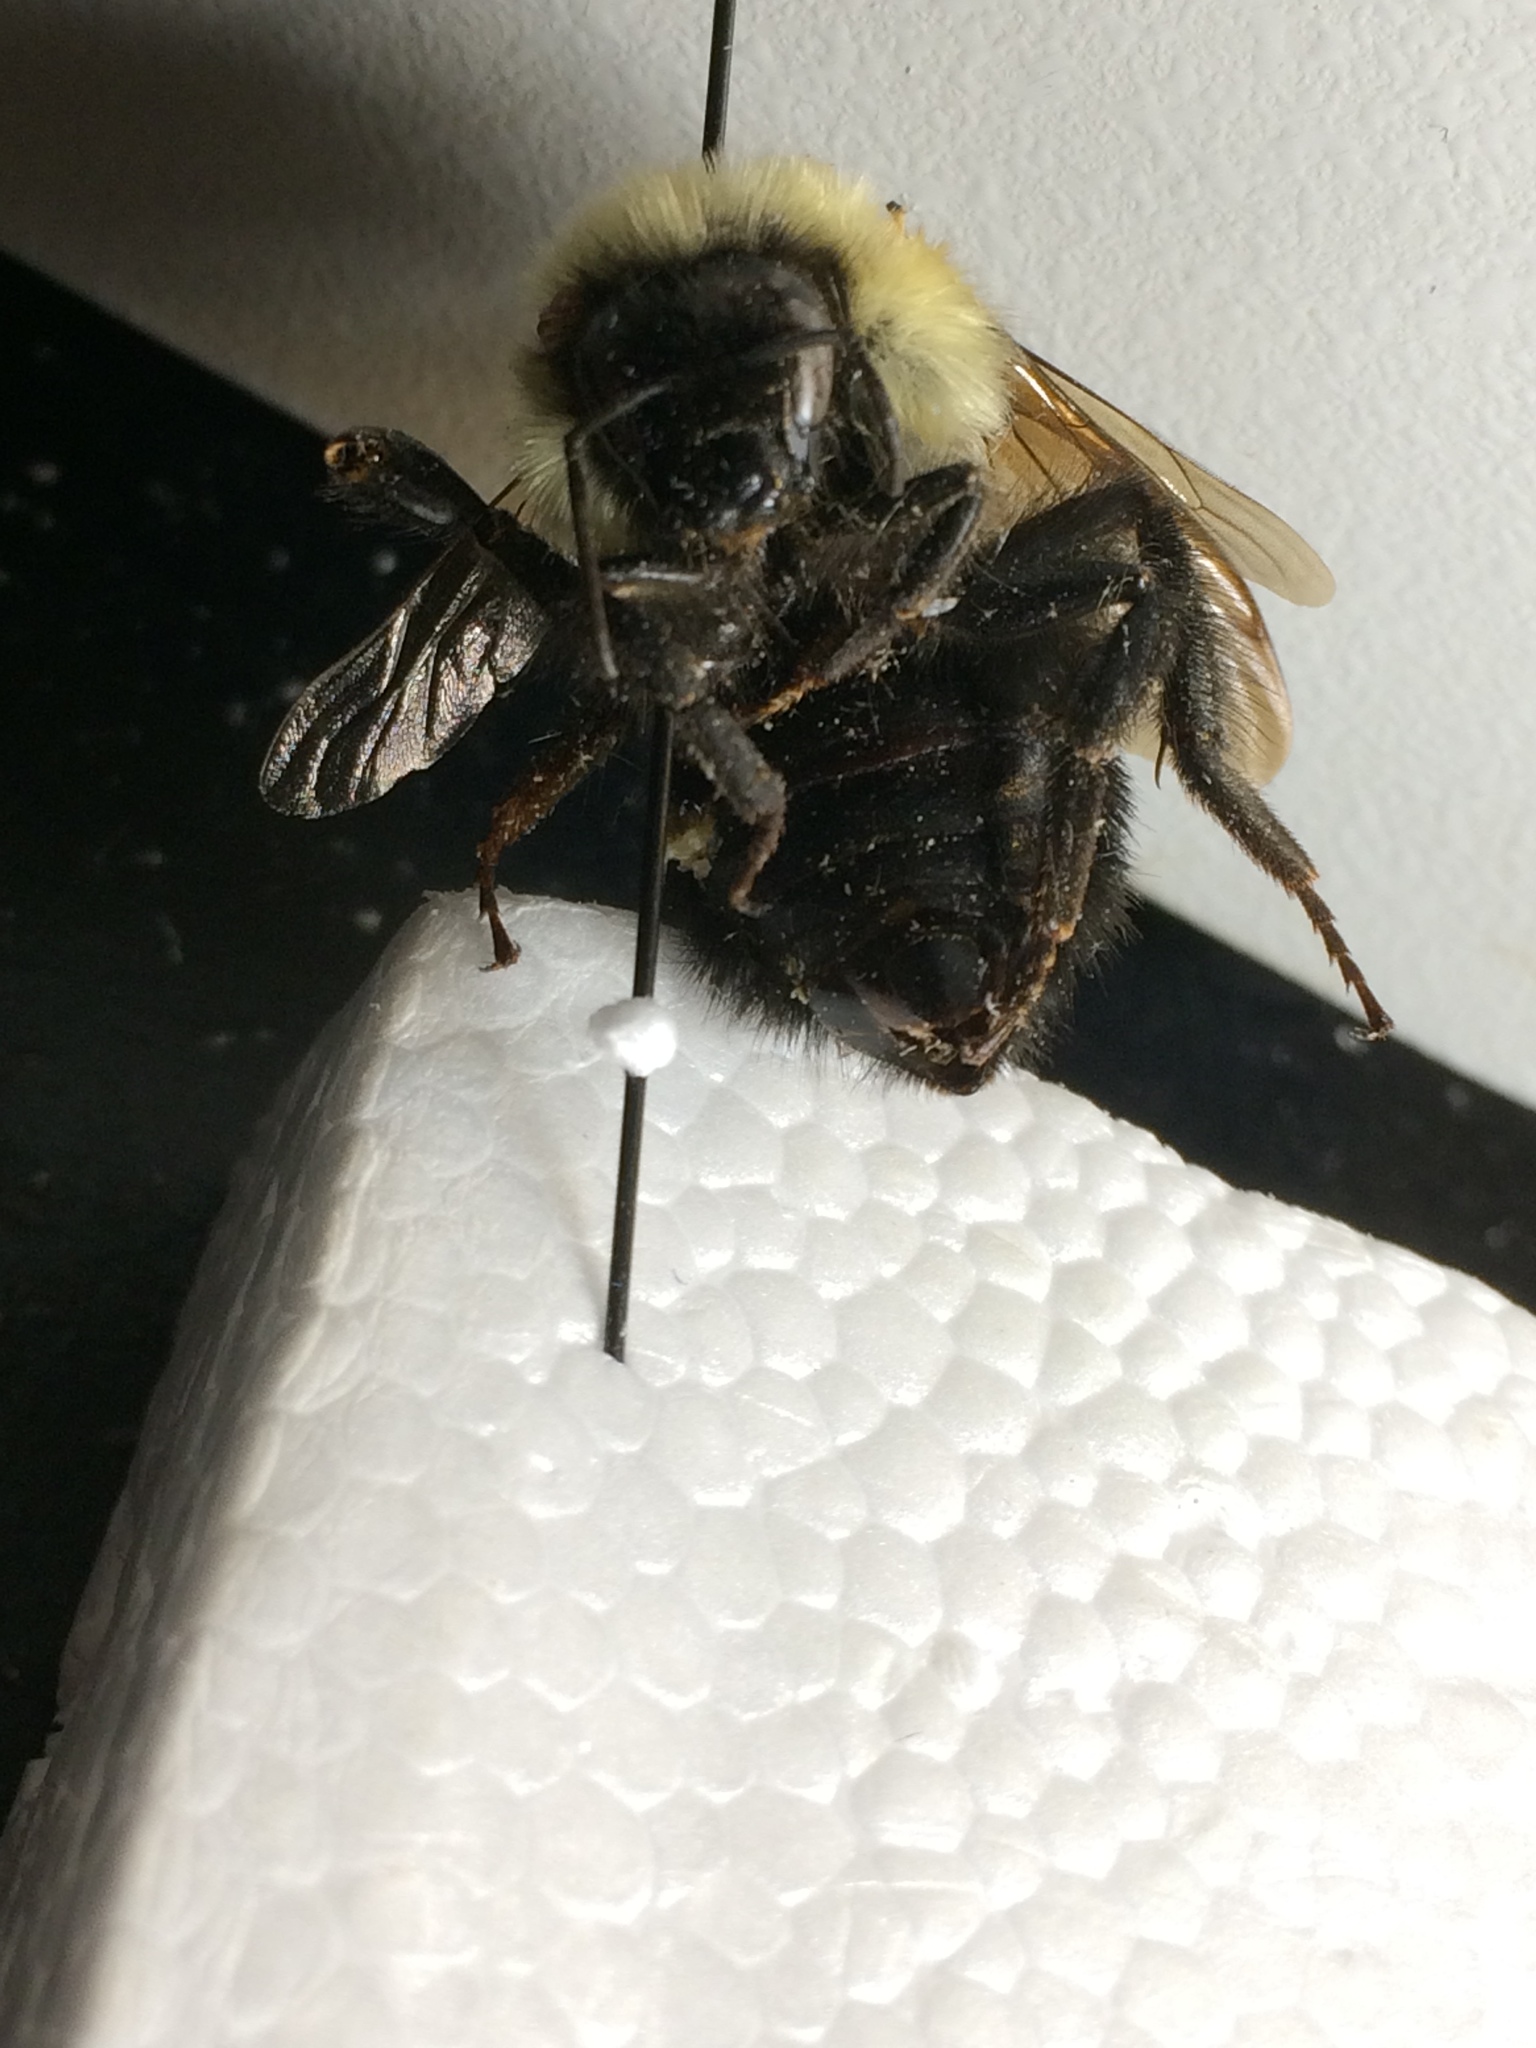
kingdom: Animalia
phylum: Arthropoda
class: Insecta
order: Hymenoptera
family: Apidae
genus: Bombus
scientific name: Bombus bimaculatus
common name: Two-spotted bumble bee
